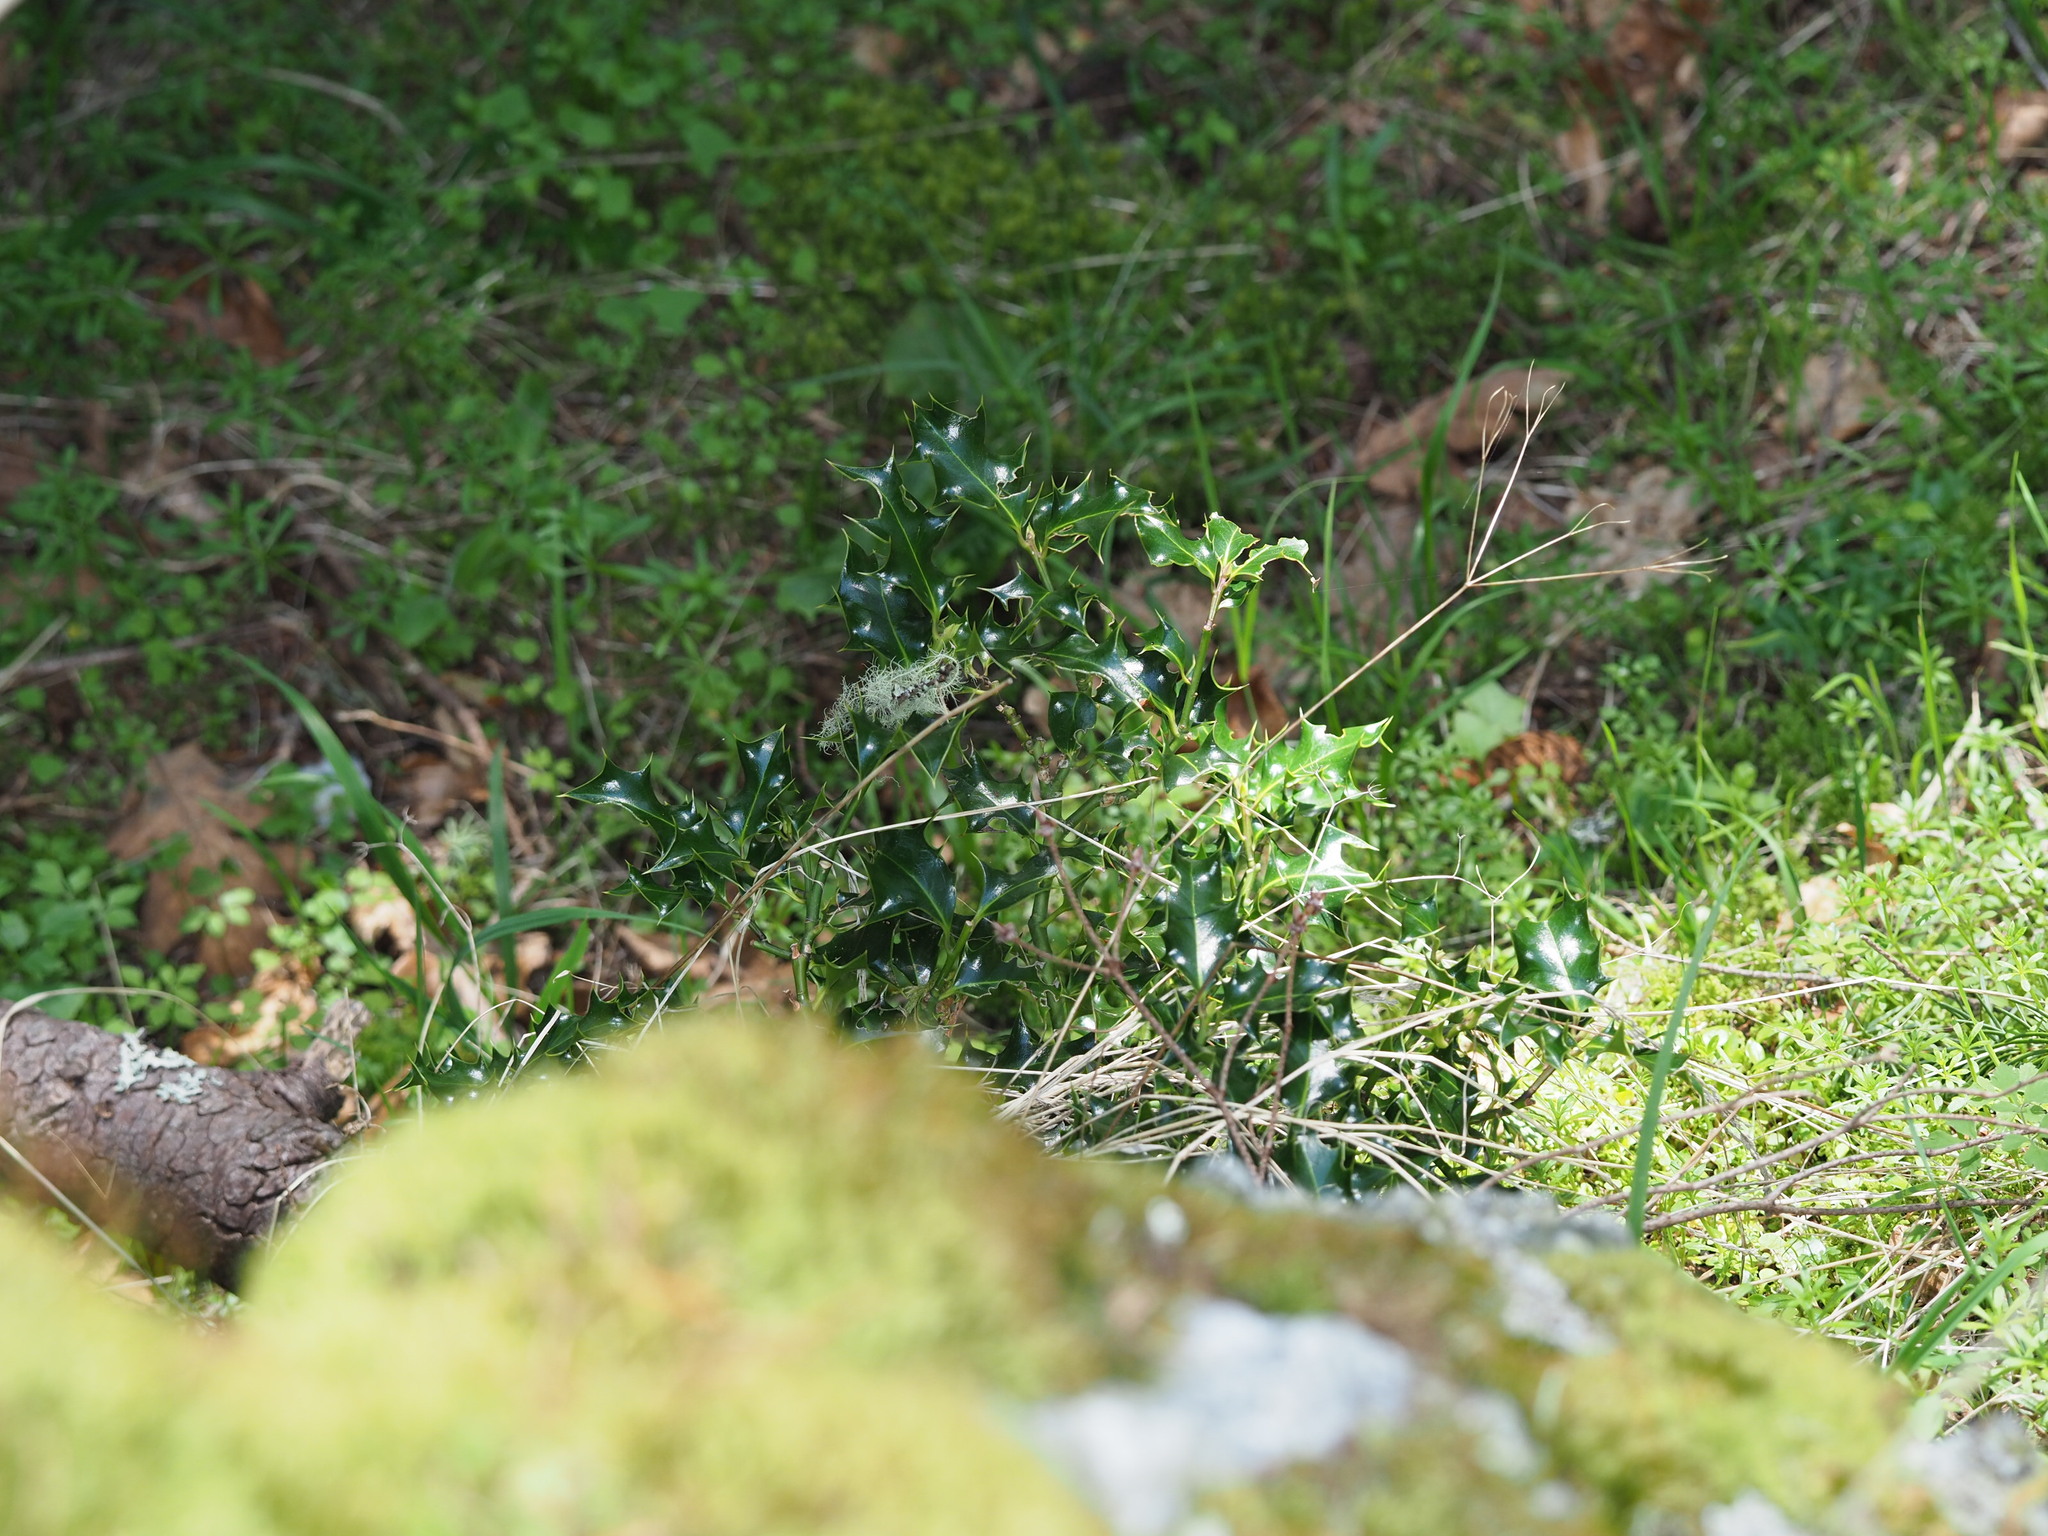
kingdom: Plantae
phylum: Tracheophyta
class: Magnoliopsida
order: Aquifoliales
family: Aquifoliaceae
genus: Ilex
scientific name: Ilex aquifolium
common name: English holly
